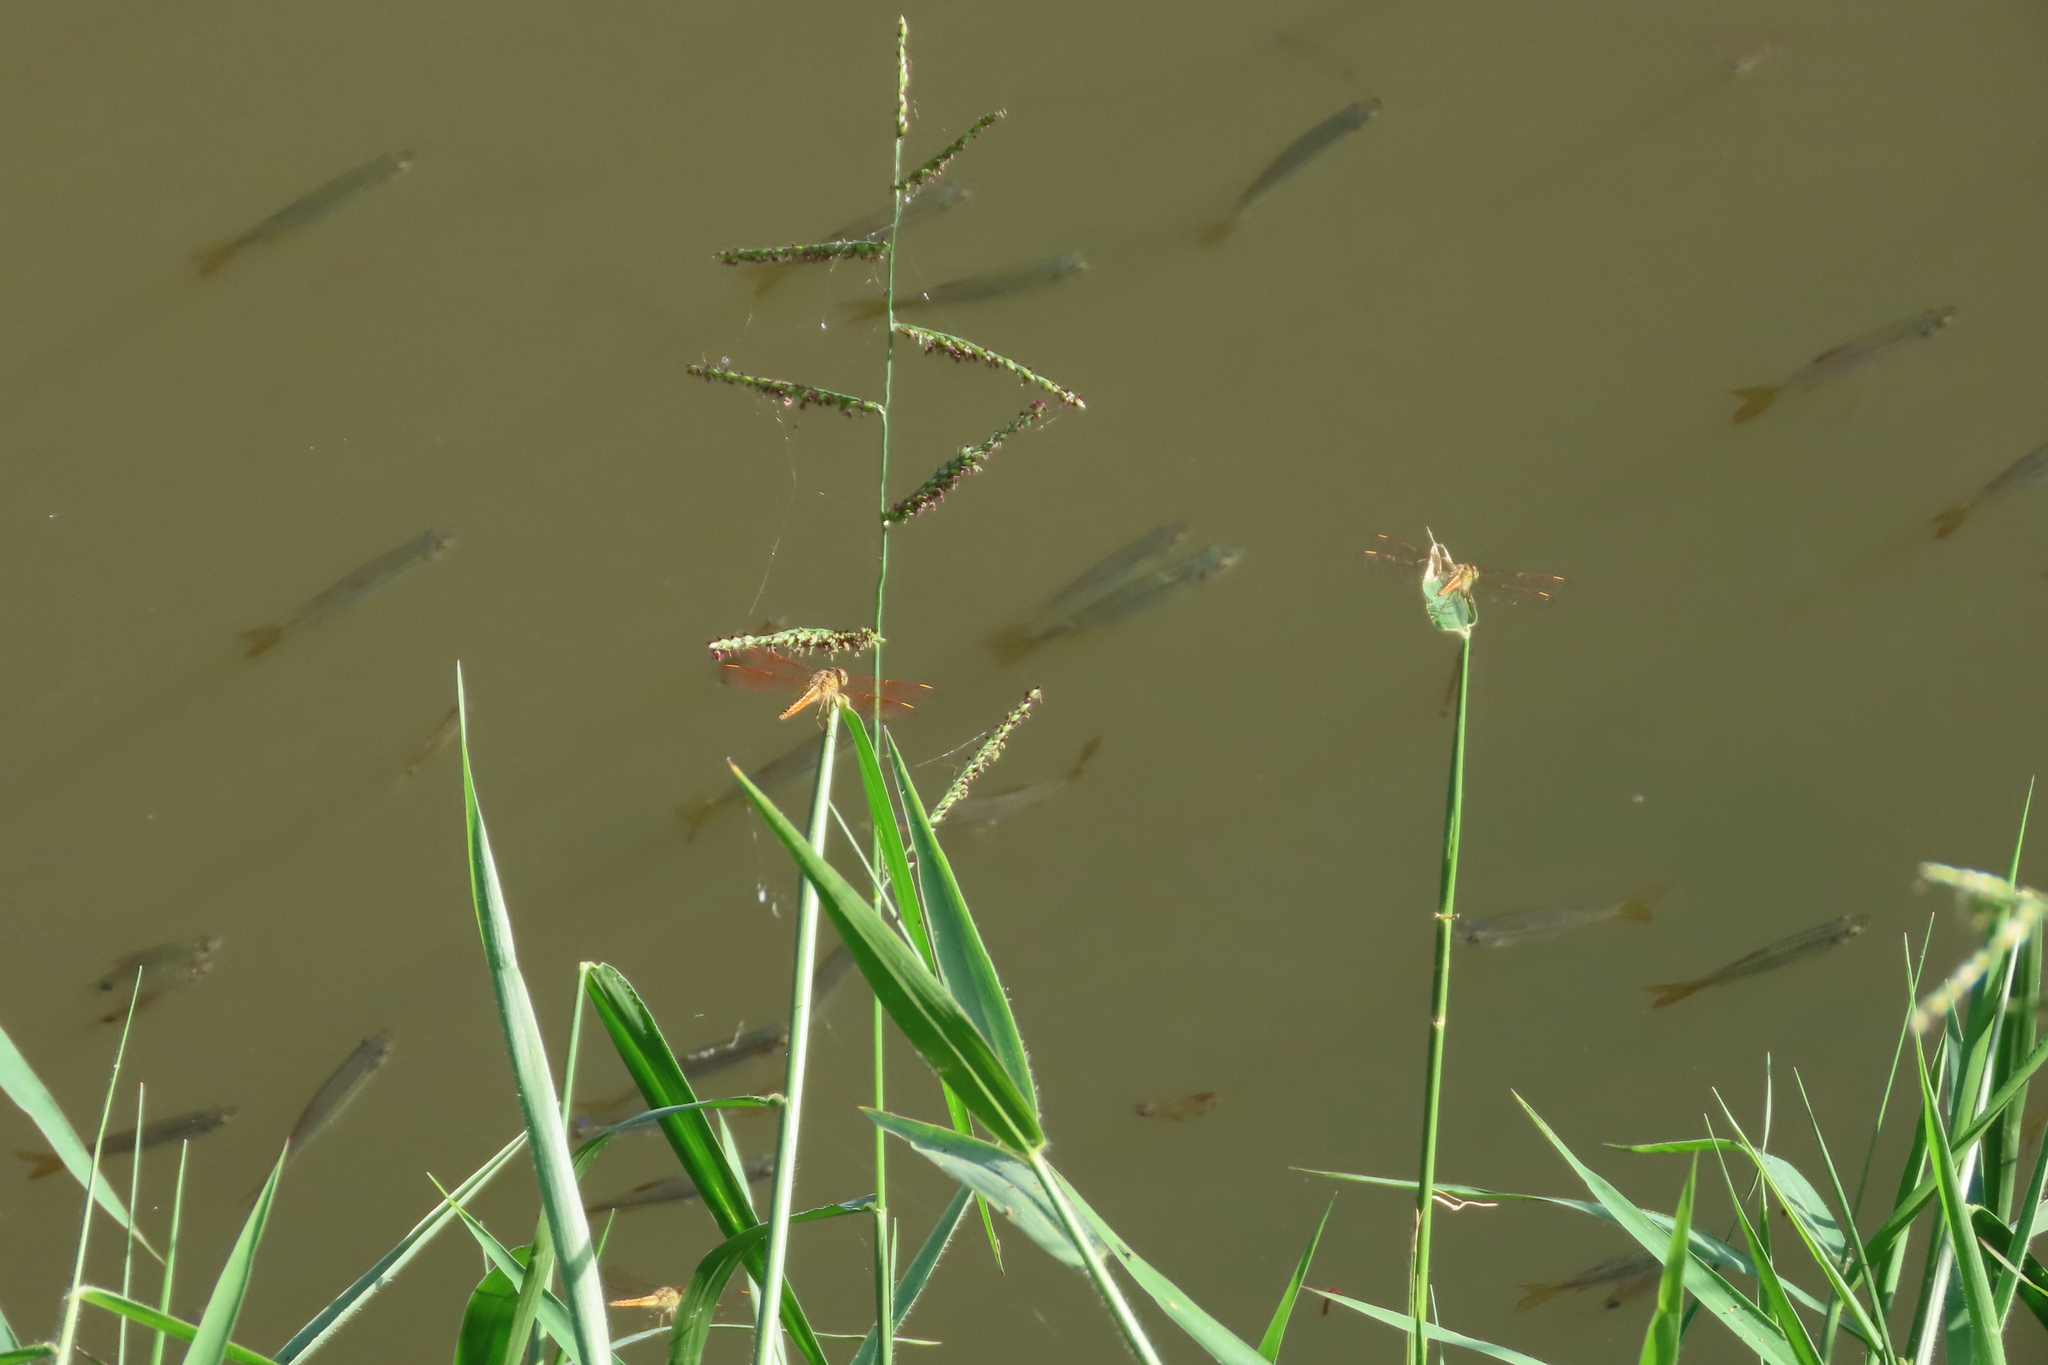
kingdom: Animalia
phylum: Arthropoda
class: Insecta
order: Odonata
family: Libellulidae
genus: Brachythemis
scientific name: Brachythemis contaminata
